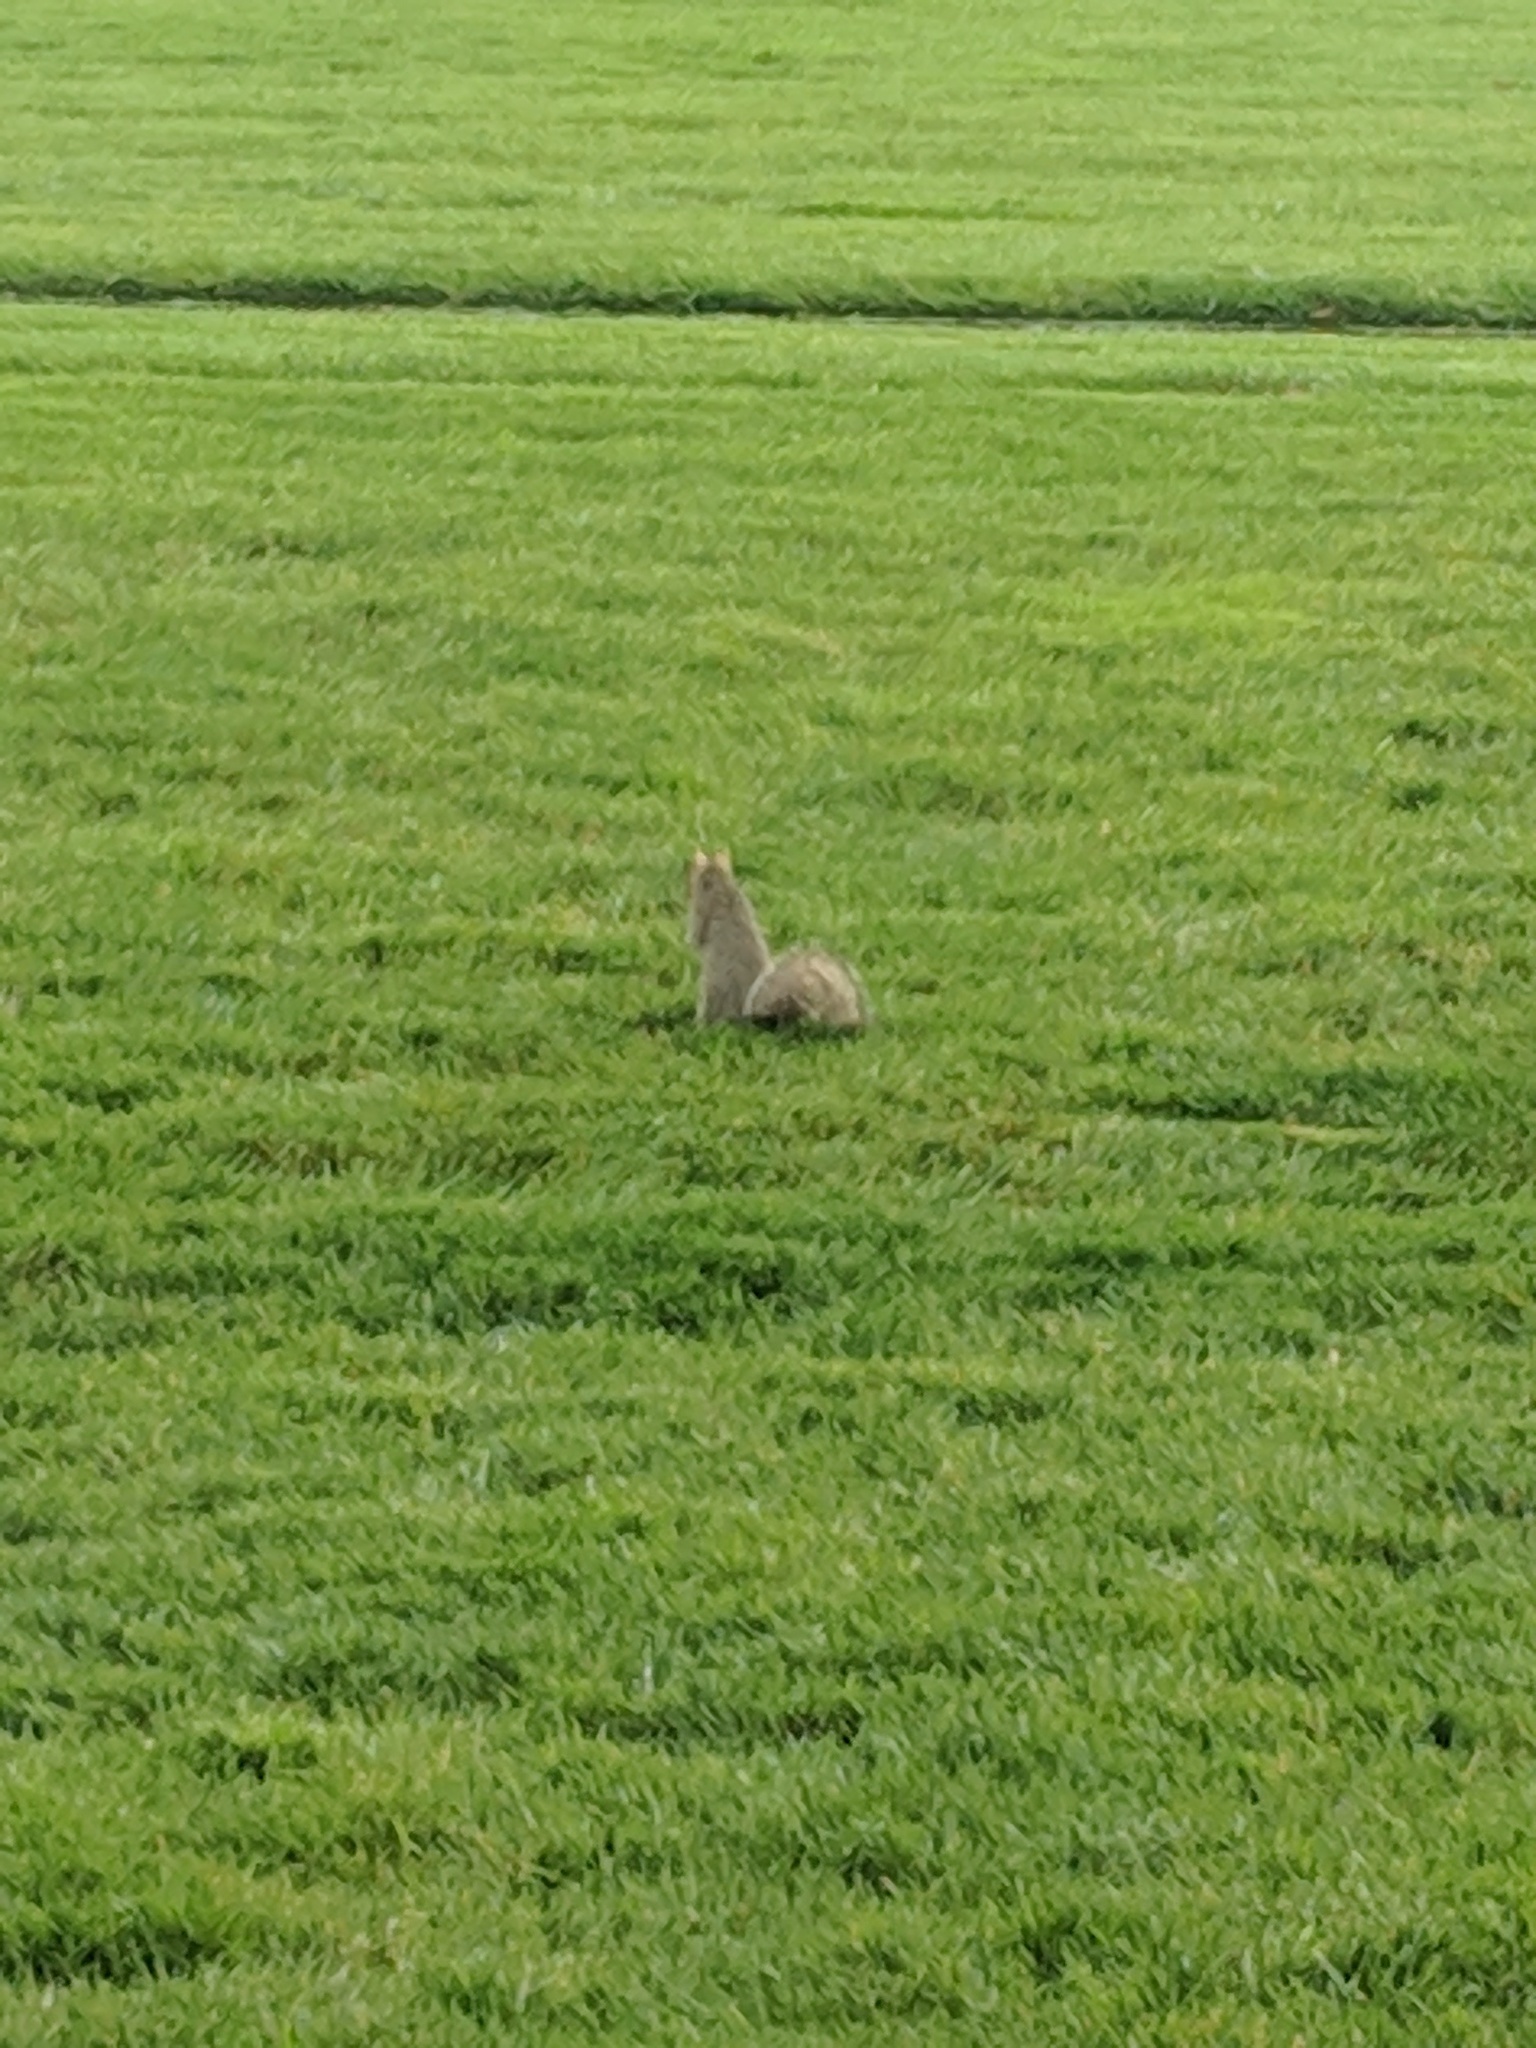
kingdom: Animalia
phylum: Chordata
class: Mammalia
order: Rodentia
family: Sciuridae
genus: Sciurus
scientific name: Sciurus niger
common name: Fox squirrel
